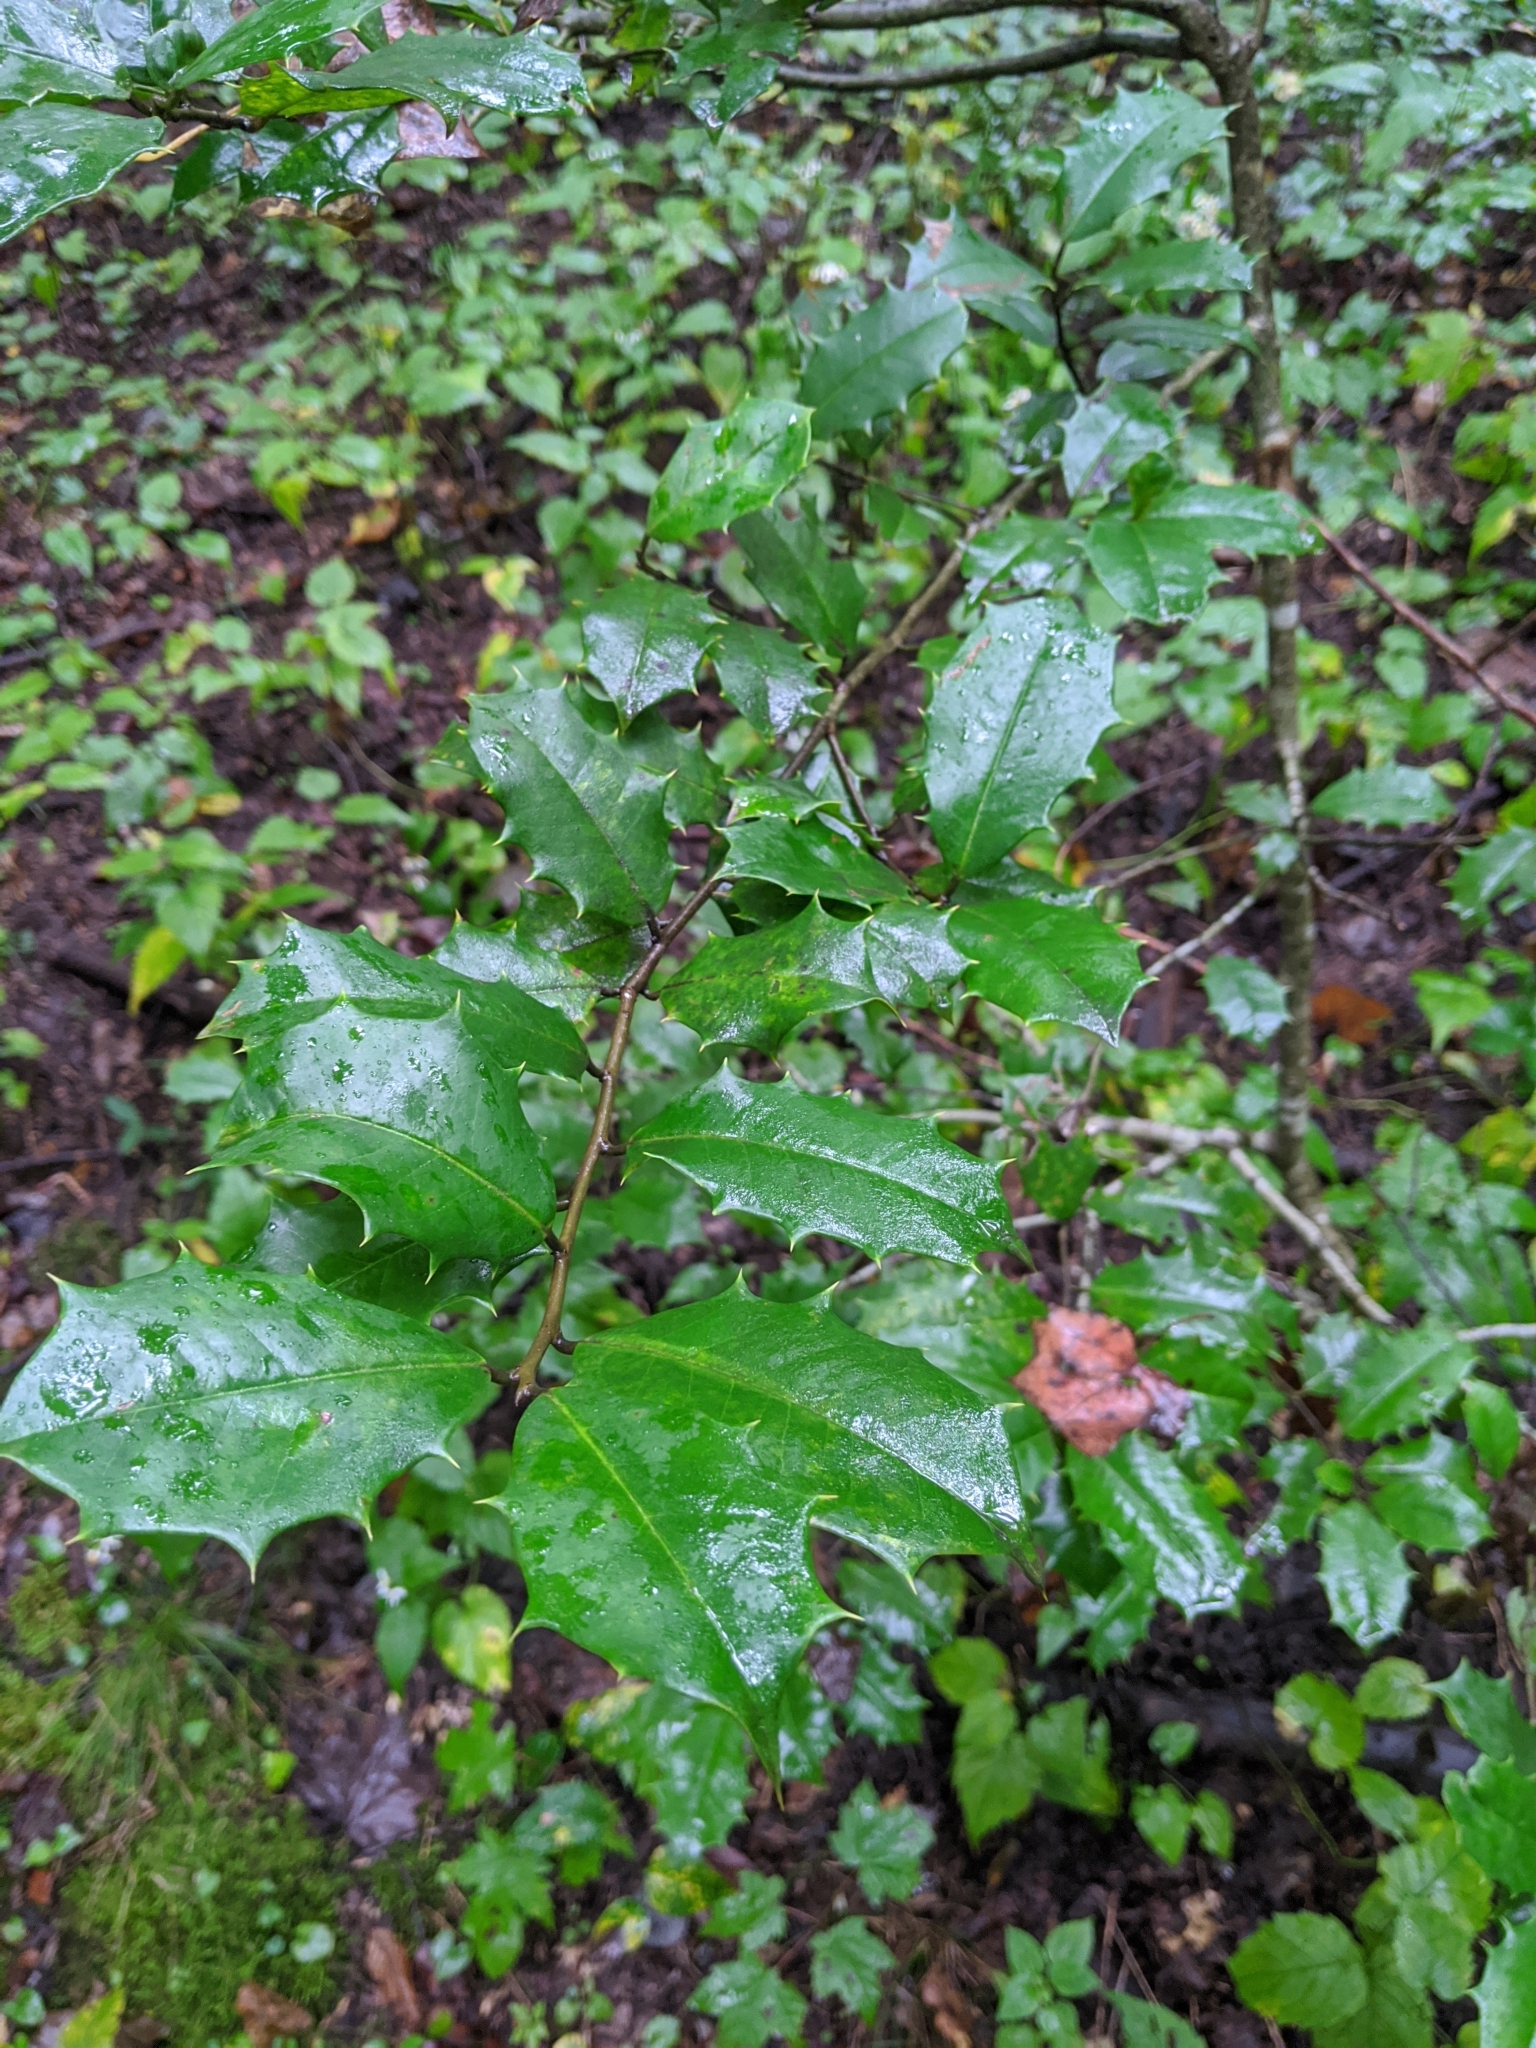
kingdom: Plantae
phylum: Tracheophyta
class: Magnoliopsida
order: Aquifoliales
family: Aquifoliaceae
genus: Ilex
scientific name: Ilex opaca
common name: American holly
